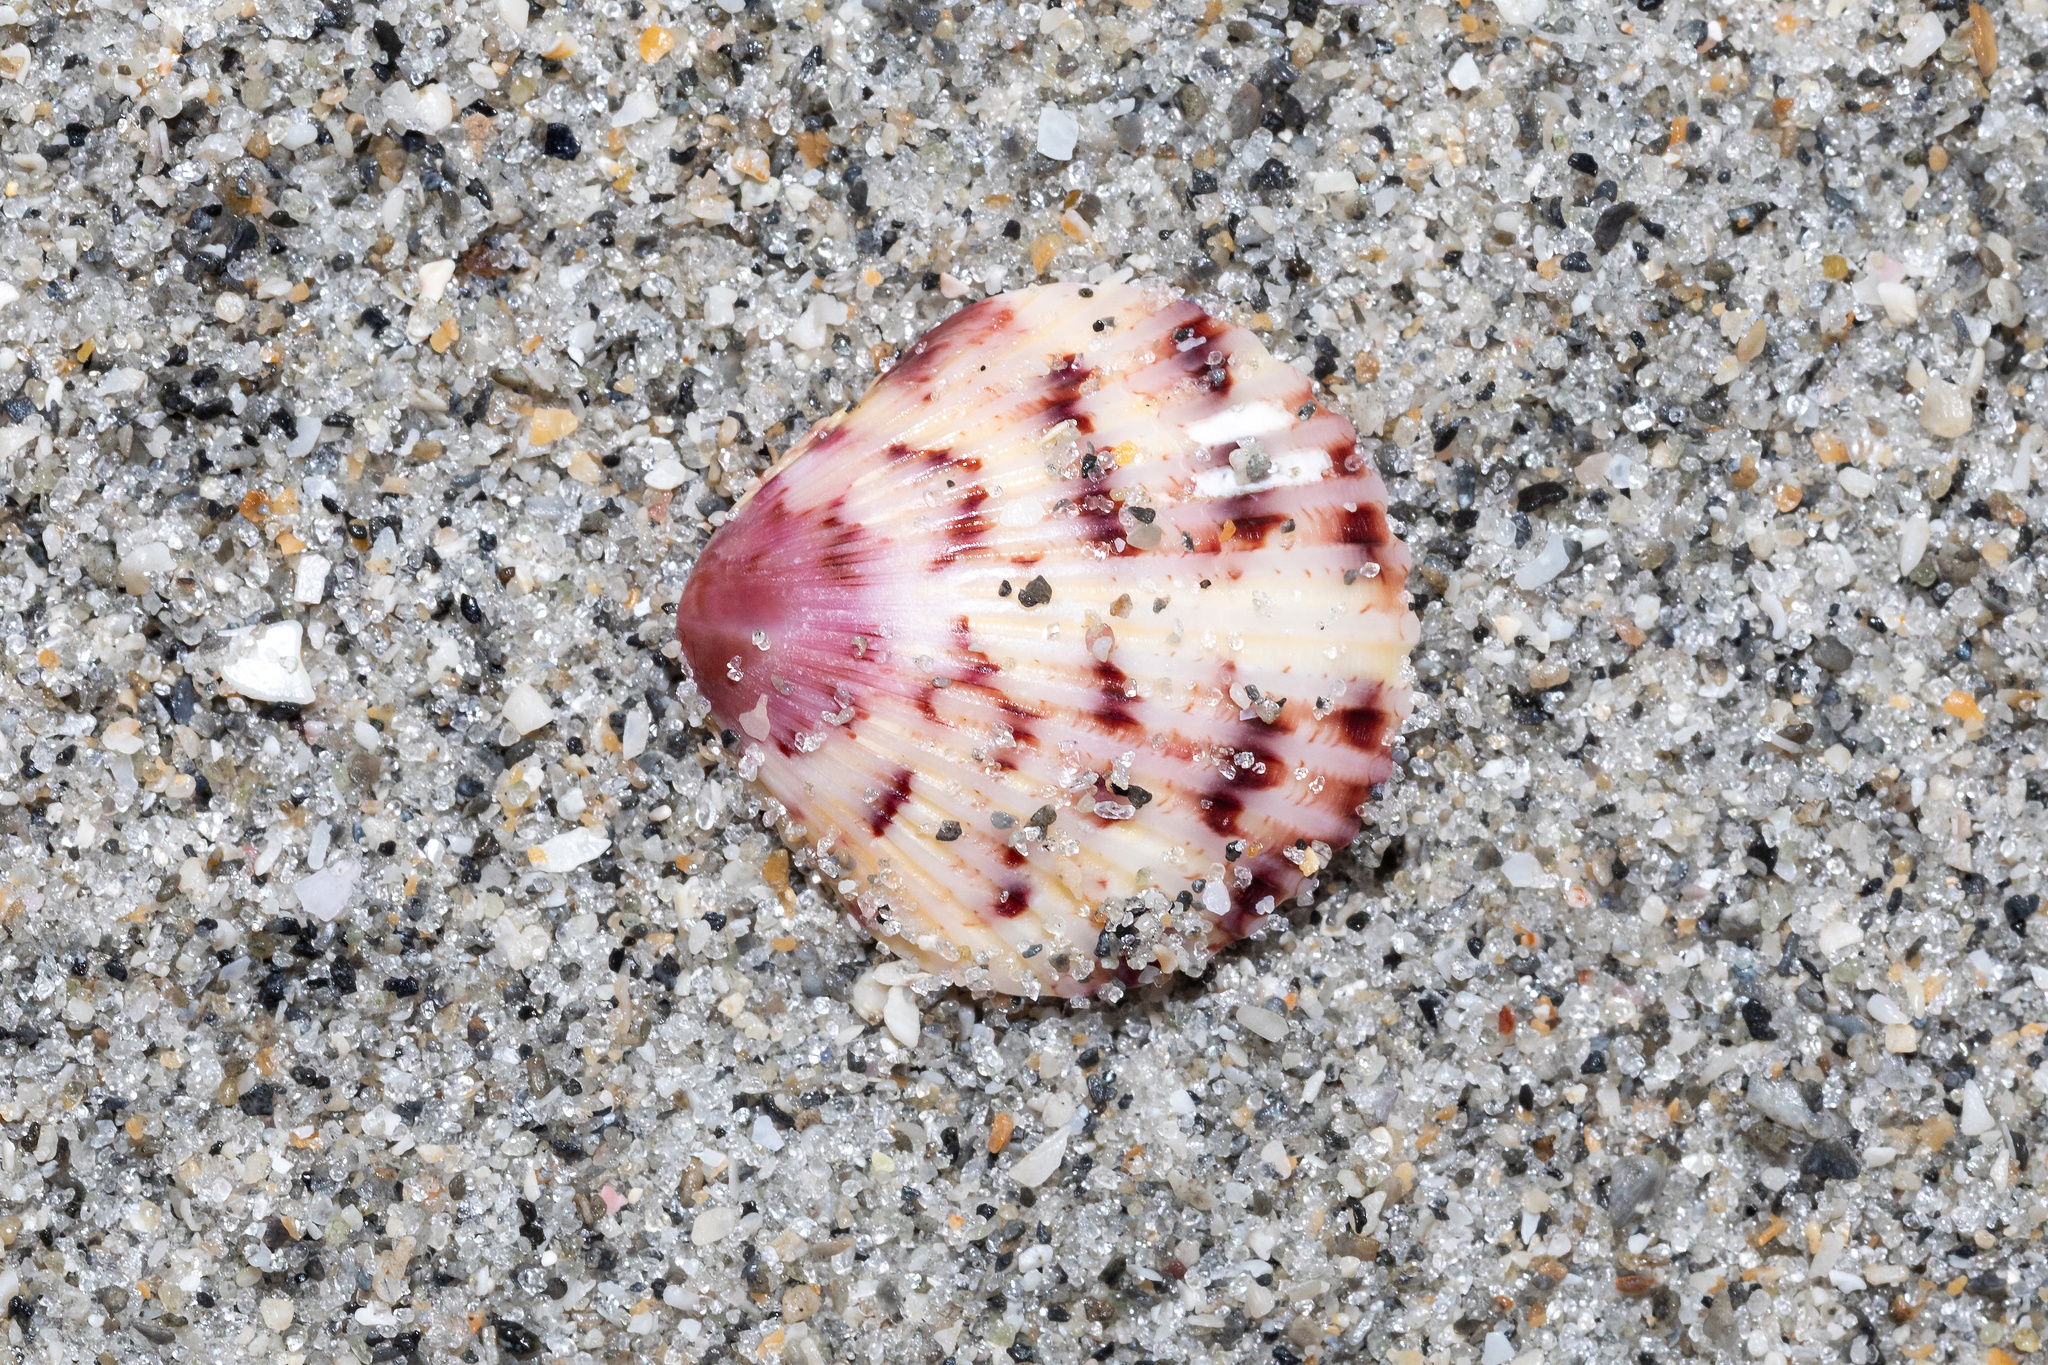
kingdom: Animalia
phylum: Mollusca
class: Bivalvia
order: Pectinida
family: Pectinidae
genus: Argopecten
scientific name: Argopecten gibbus
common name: Atlantic calico scallop
